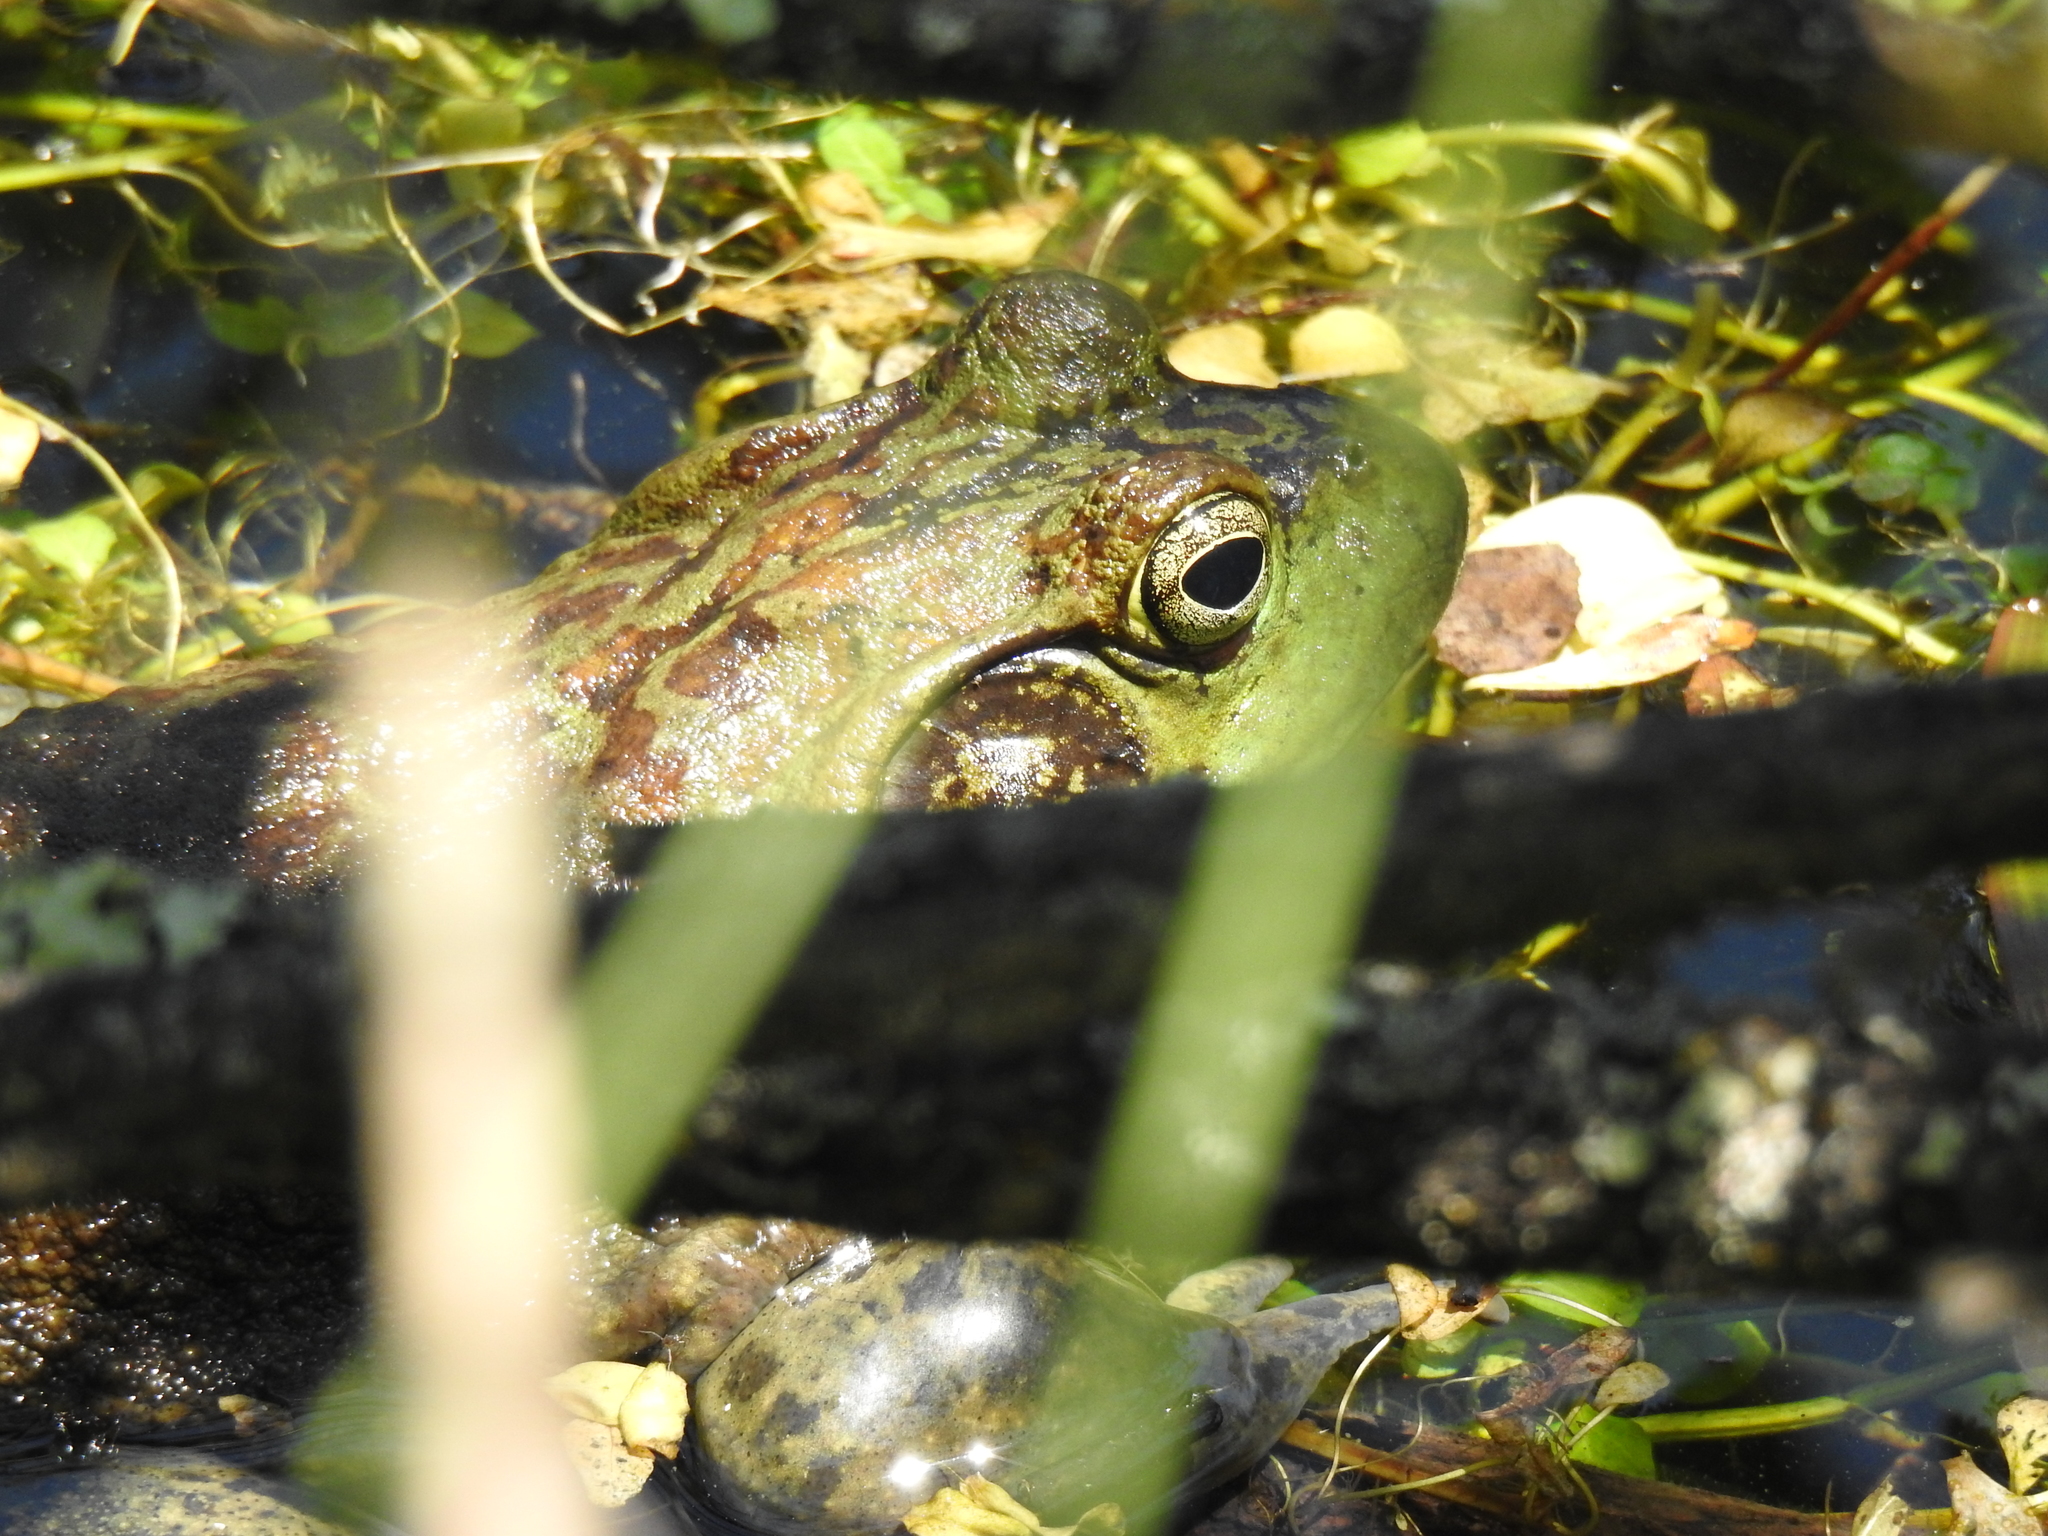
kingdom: Animalia
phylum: Chordata
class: Amphibia
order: Anura
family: Ranidae
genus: Lithobates
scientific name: Lithobates catesbeianus
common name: American bullfrog
